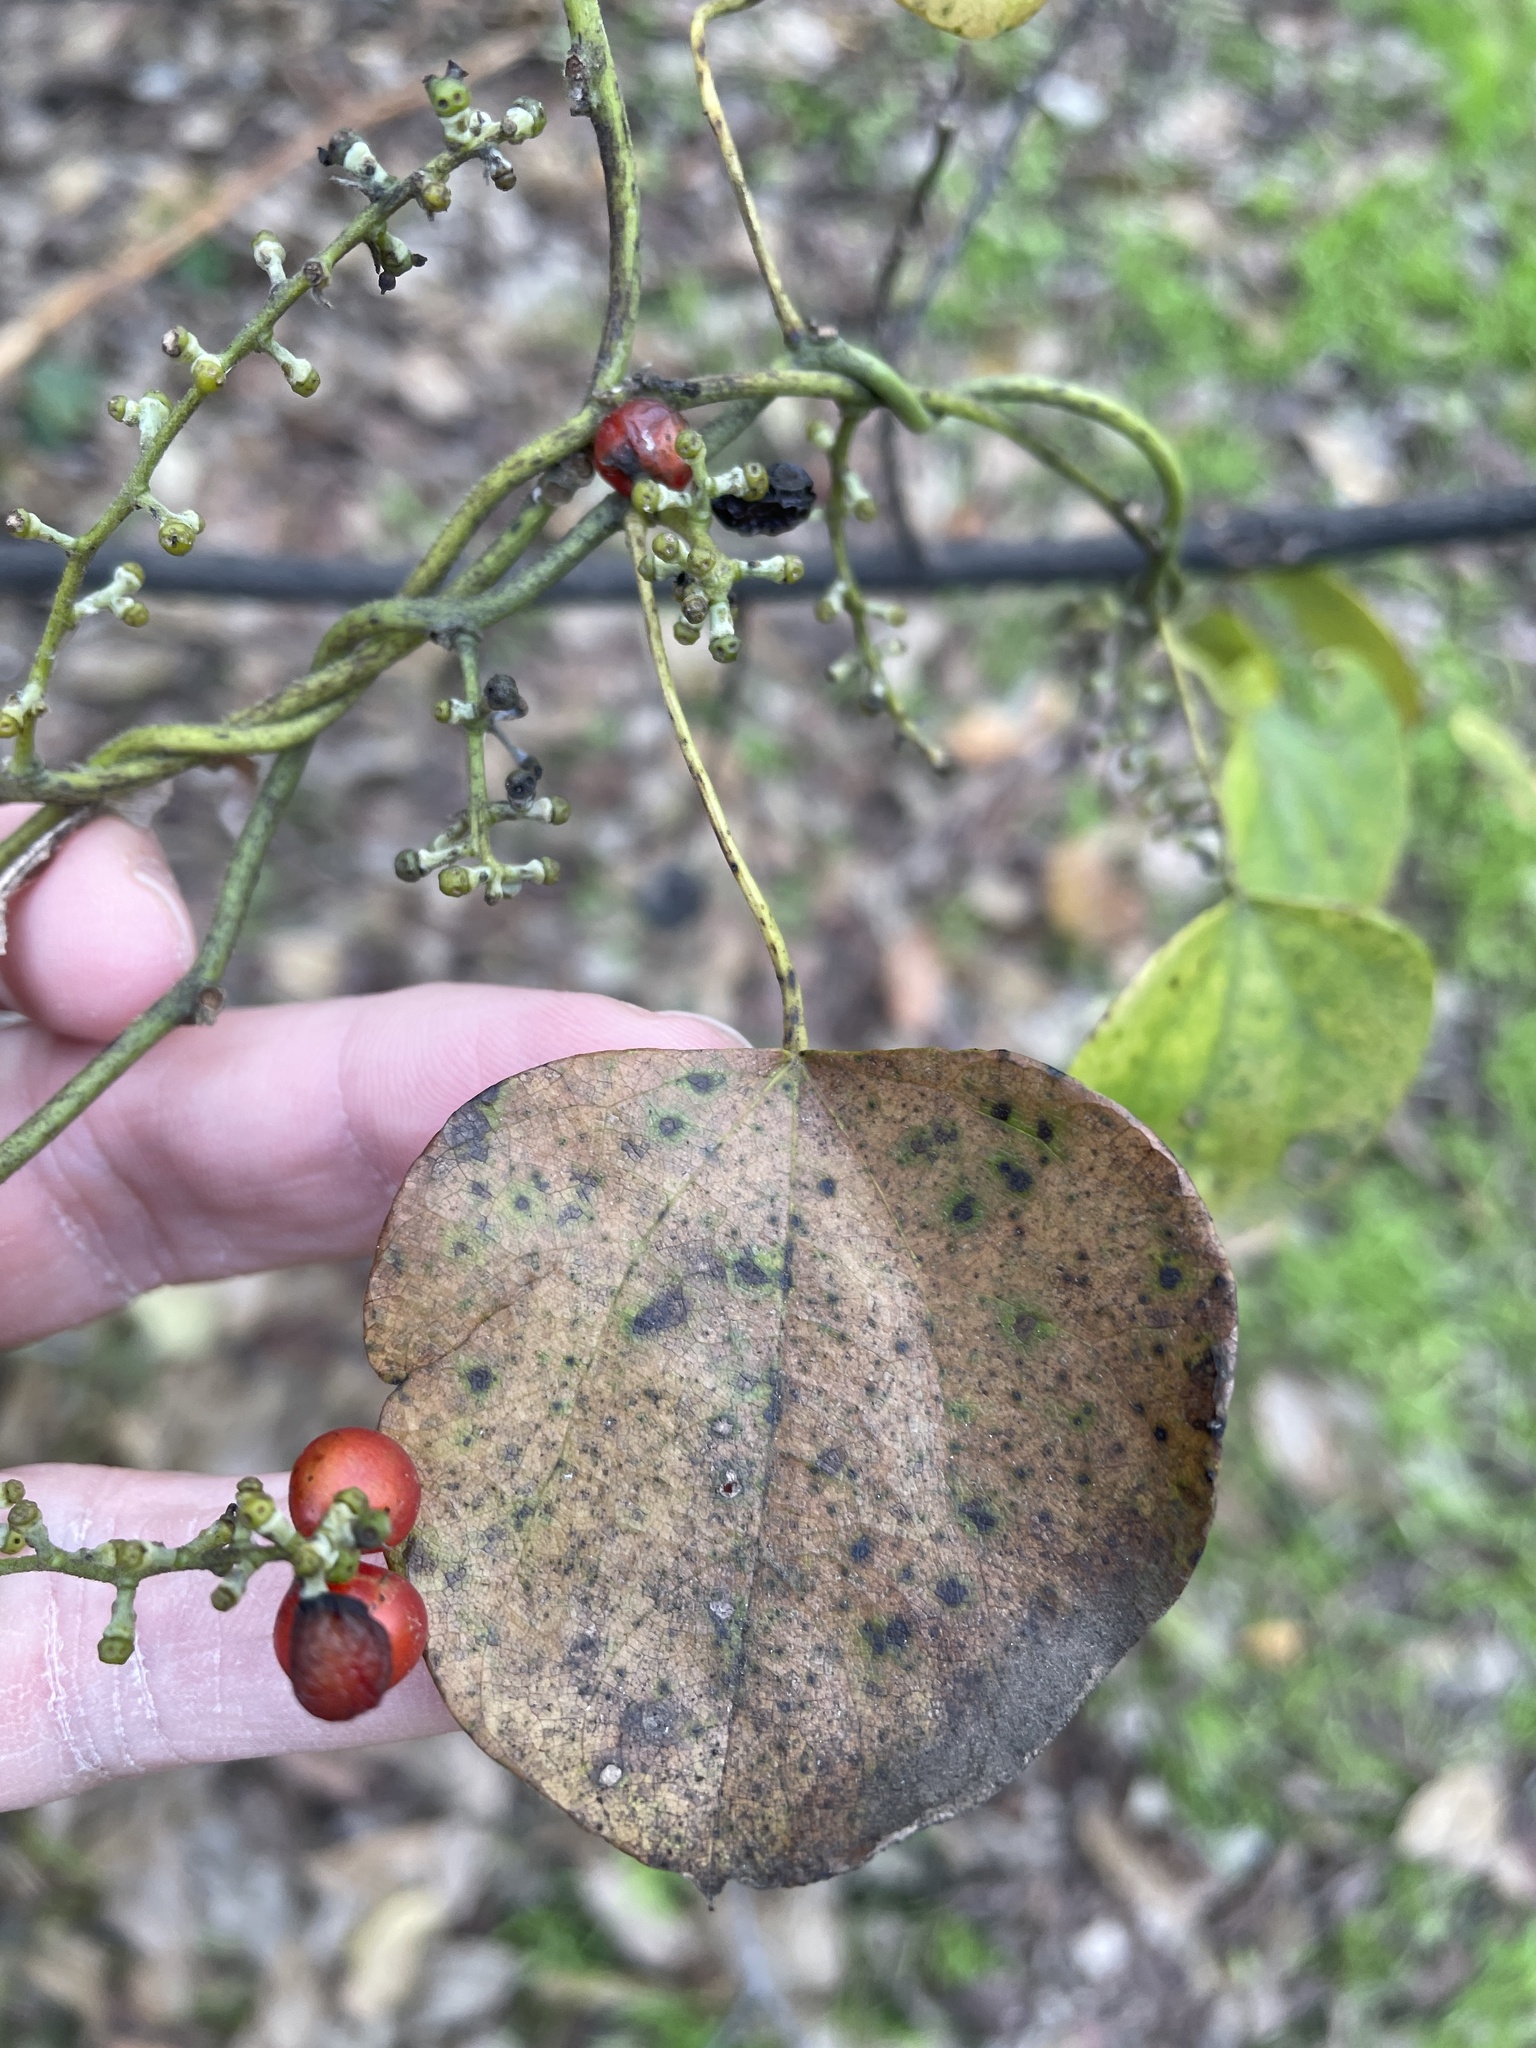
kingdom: Plantae
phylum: Tracheophyta
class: Magnoliopsida
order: Ranunculales
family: Menispermaceae
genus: Cocculus
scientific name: Cocculus carolinus
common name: Carolina moonseed
